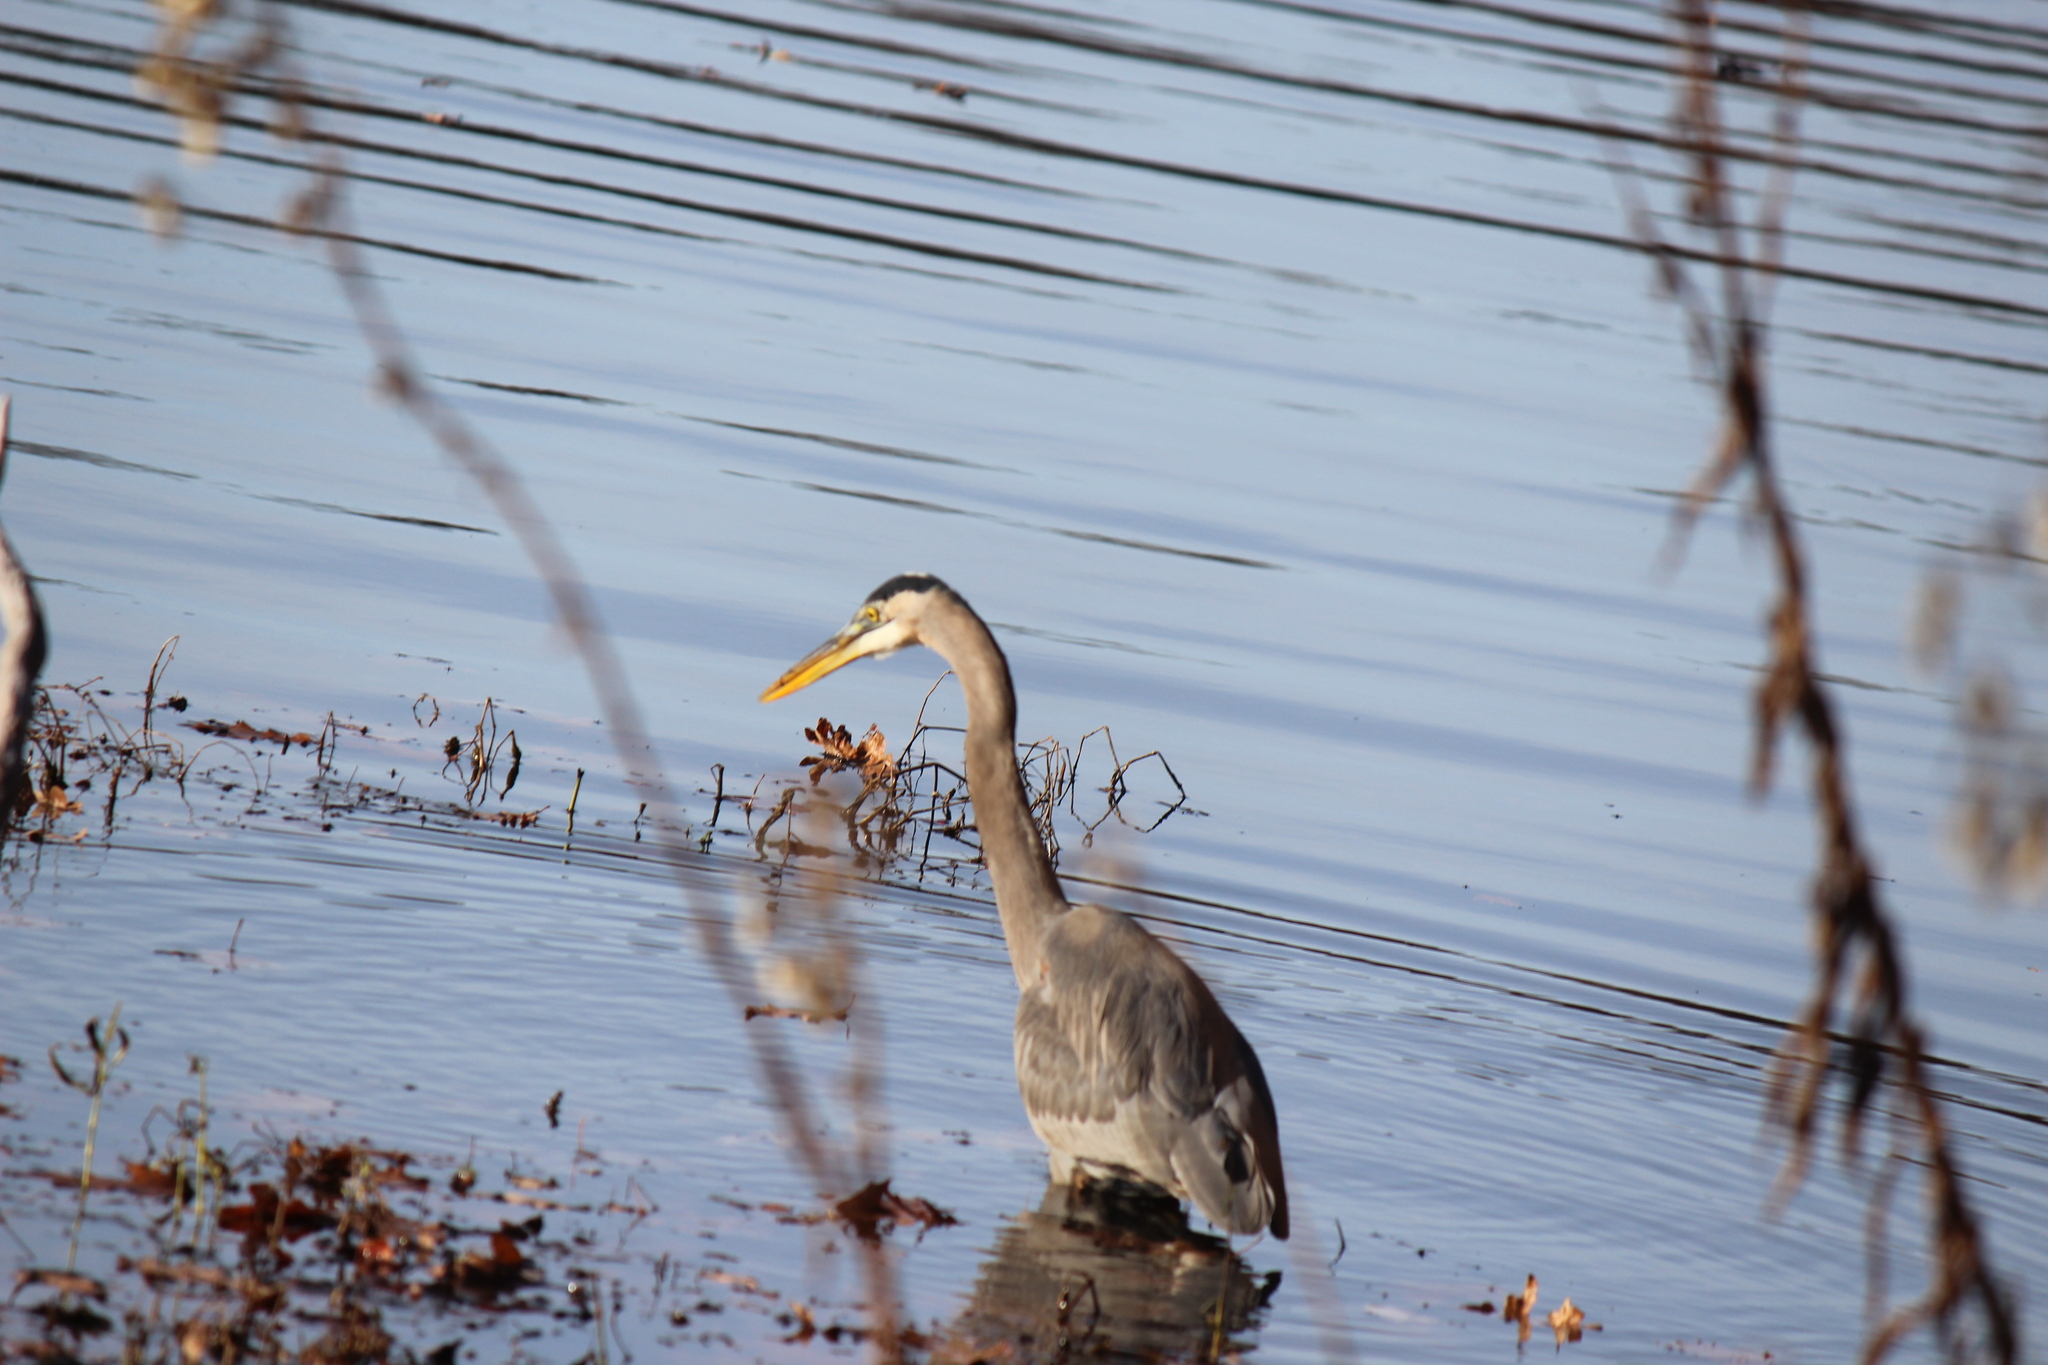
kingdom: Animalia
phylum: Chordata
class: Aves
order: Pelecaniformes
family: Ardeidae
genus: Ardea
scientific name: Ardea herodias
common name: Great blue heron
